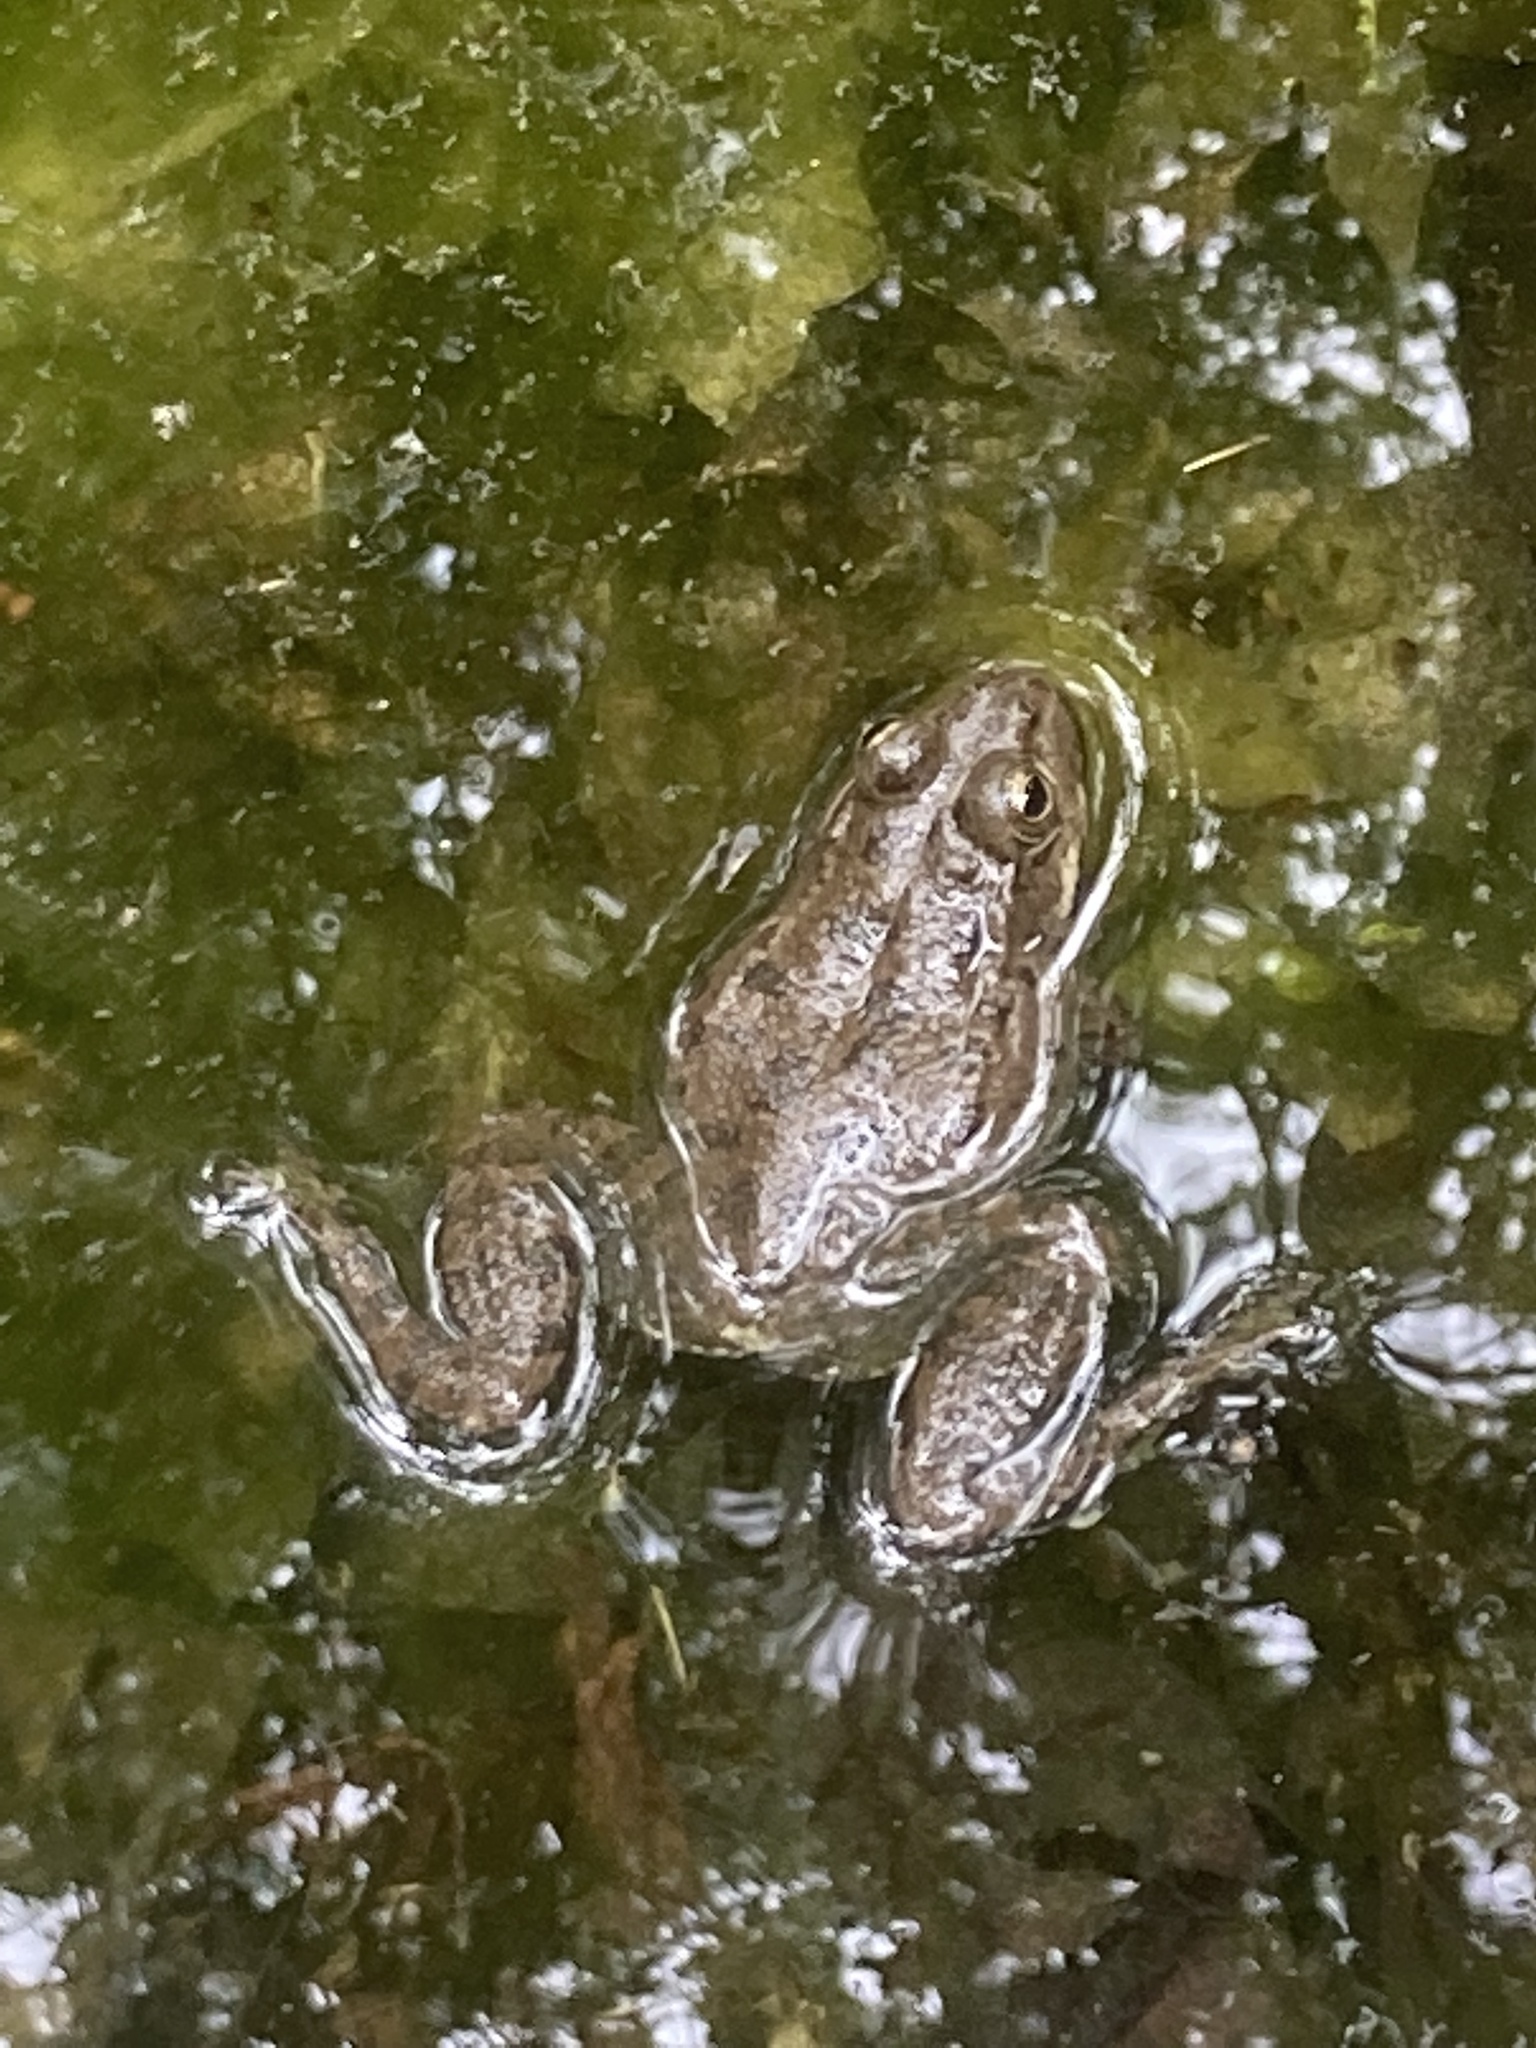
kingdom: Animalia
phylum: Chordata
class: Amphibia
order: Anura
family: Ranidae
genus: Pelophylax
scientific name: Pelophylax ridibundus
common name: Marsh frog
